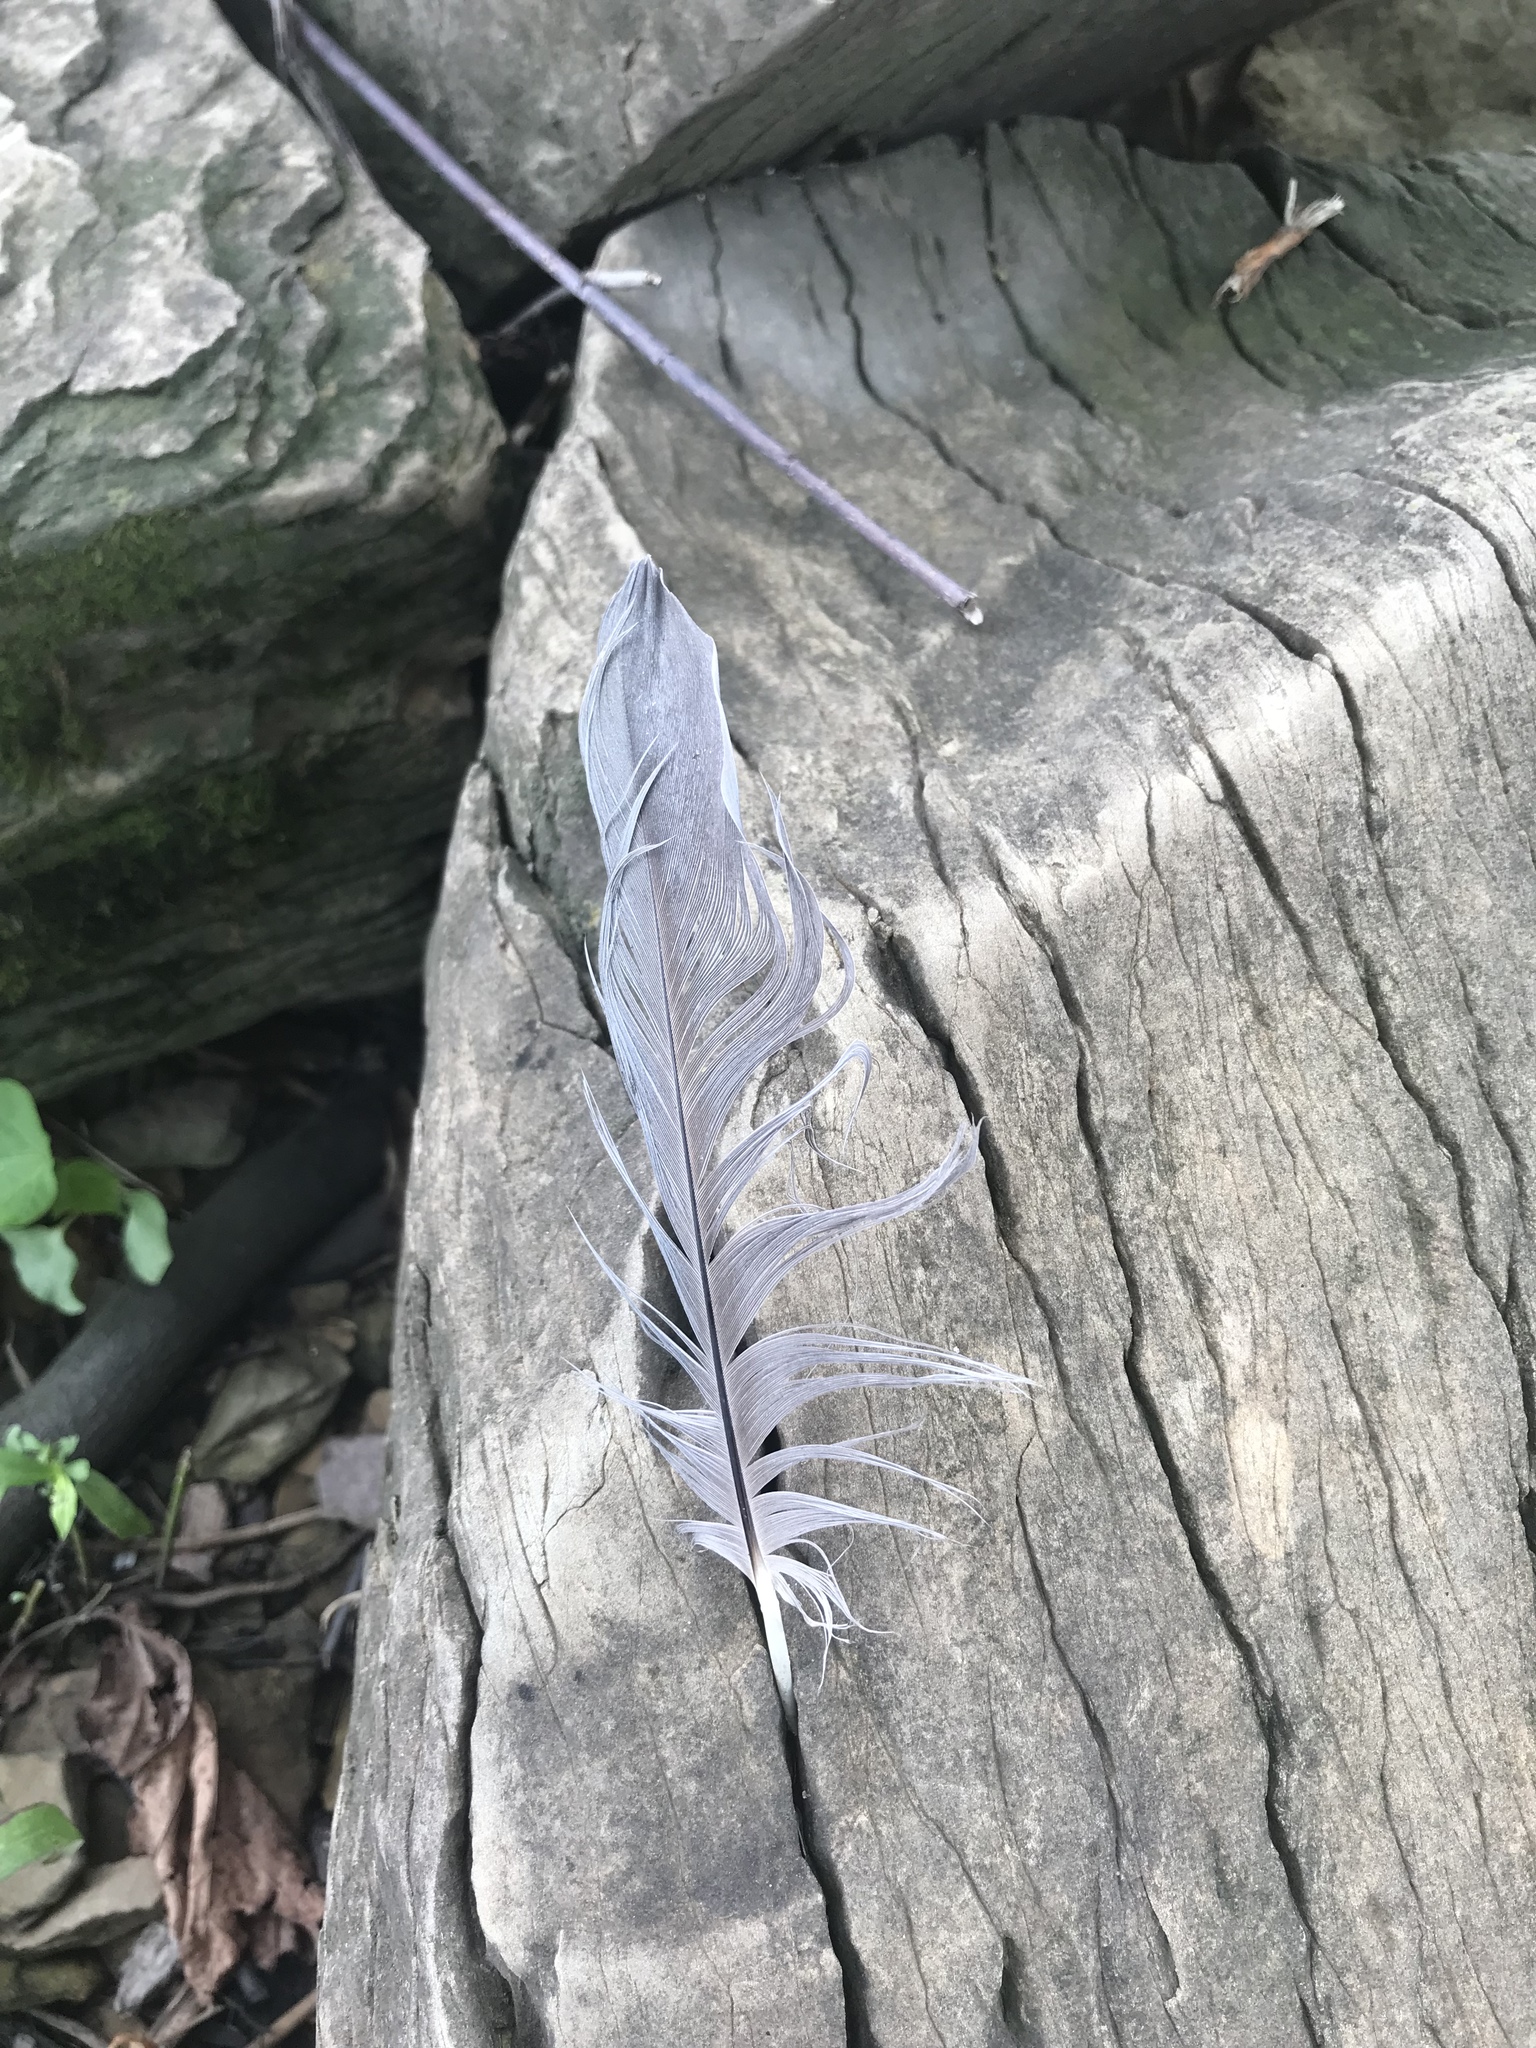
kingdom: Animalia
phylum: Chordata
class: Aves
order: Pelecaniformes
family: Ardeidae
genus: Ardea
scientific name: Ardea herodias
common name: Great blue heron
